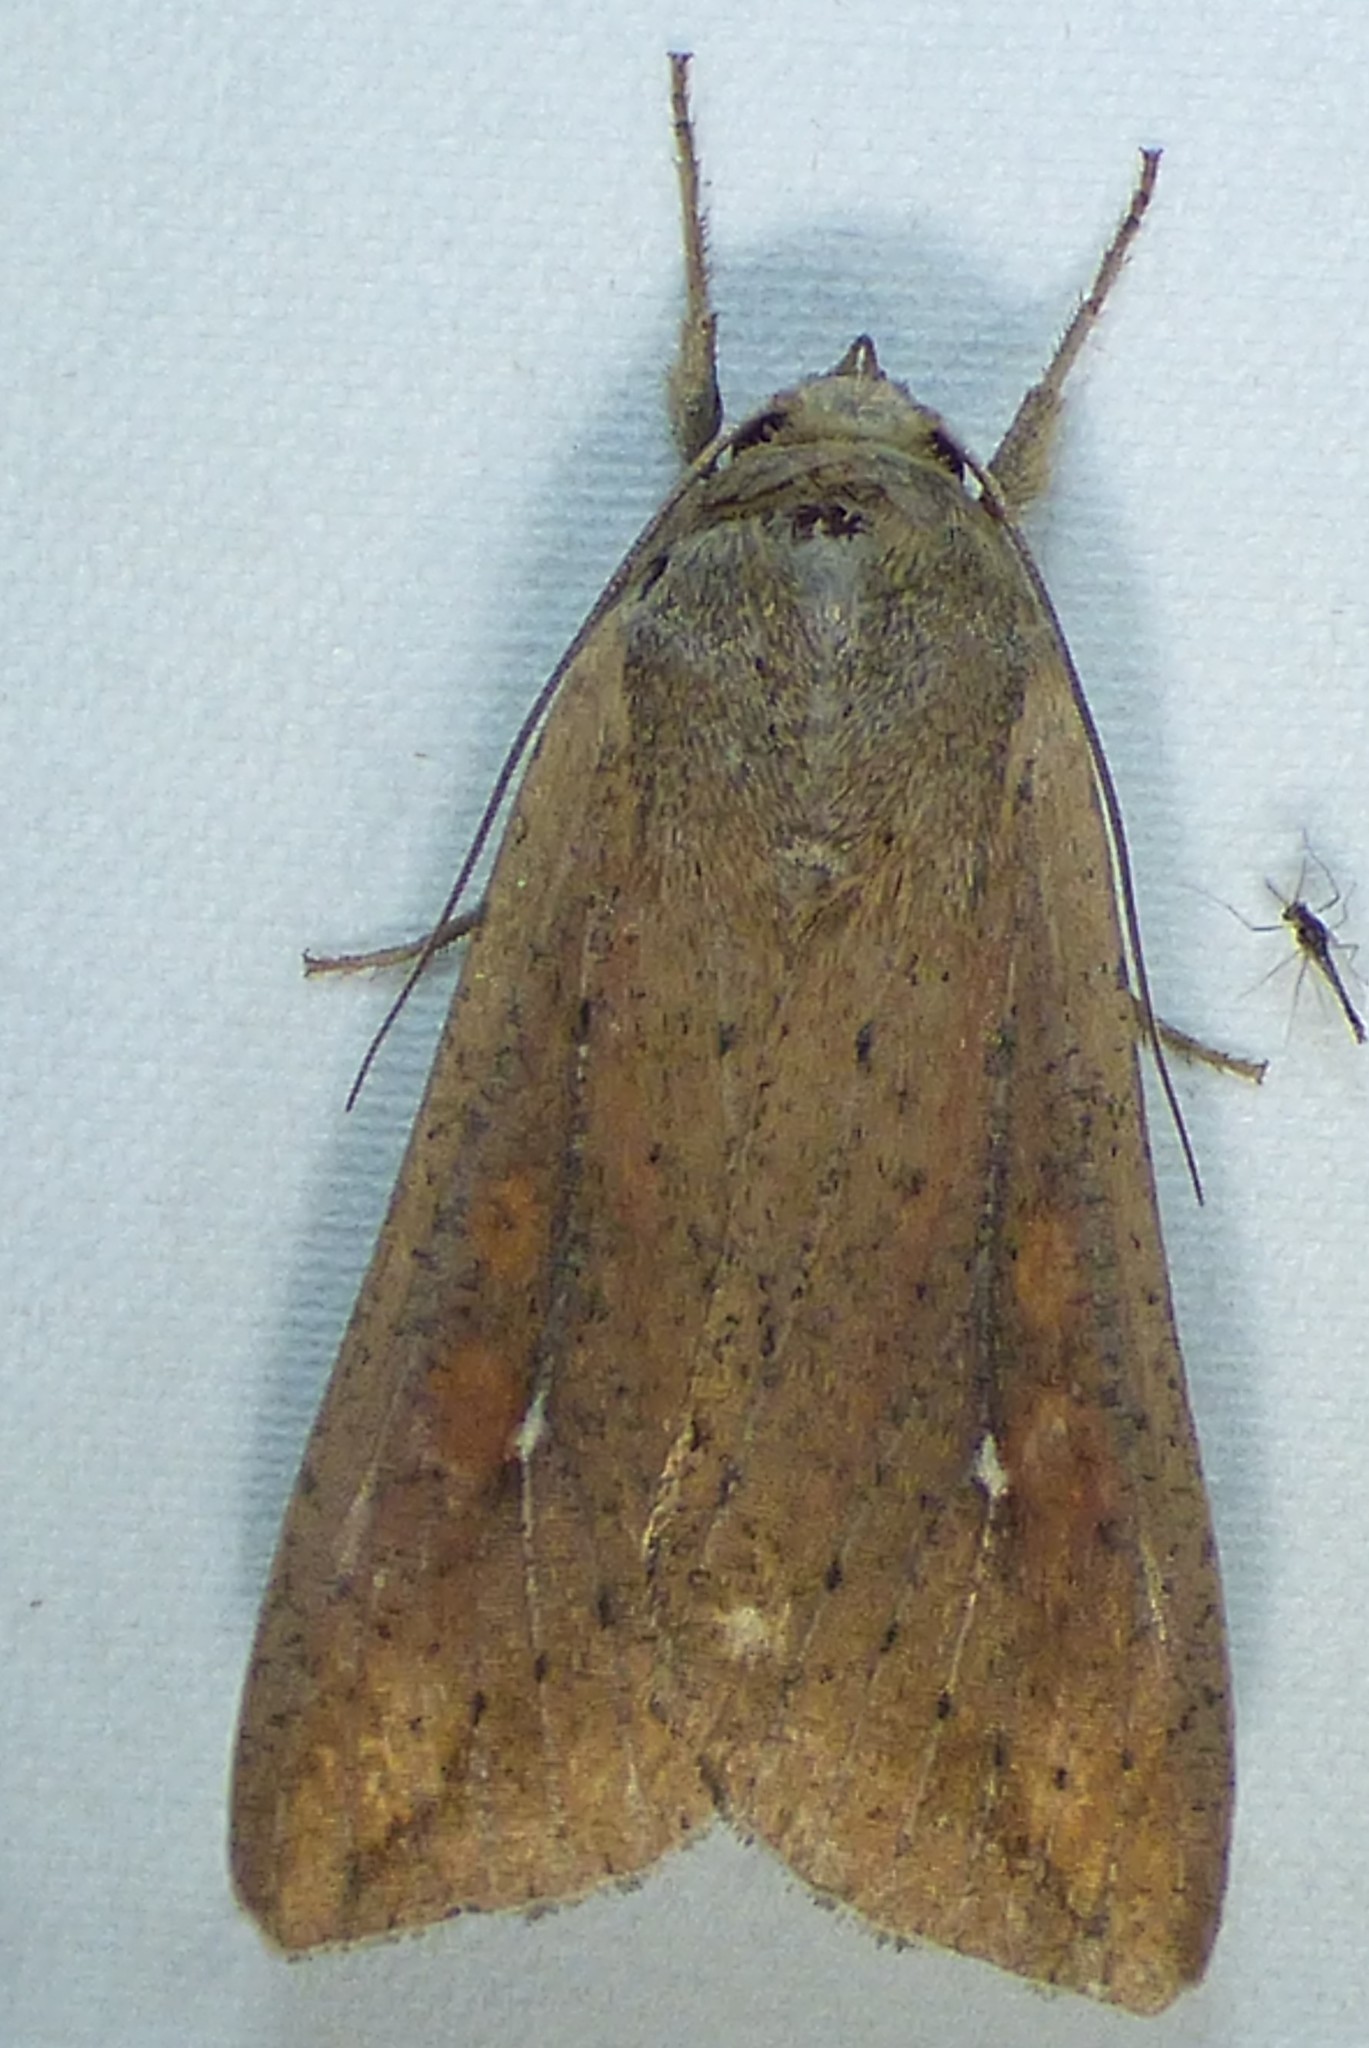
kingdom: Animalia
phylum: Arthropoda
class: Insecta
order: Lepidoptera
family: Noctuidae
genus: Mythimna
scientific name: Mythimna unipuncta
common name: White-speck
